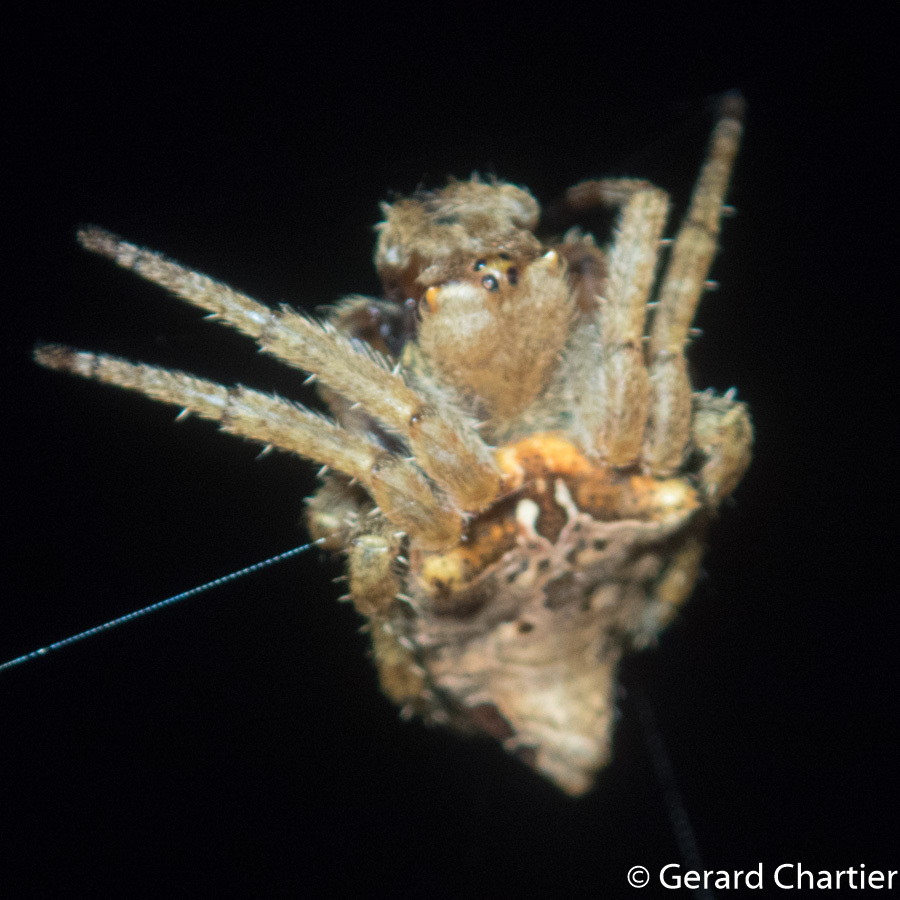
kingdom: Animalia
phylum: Arthropoda
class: Arachnida
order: Araneae
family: Araneidae
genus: Parawixia
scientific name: Parawixia dehaani
